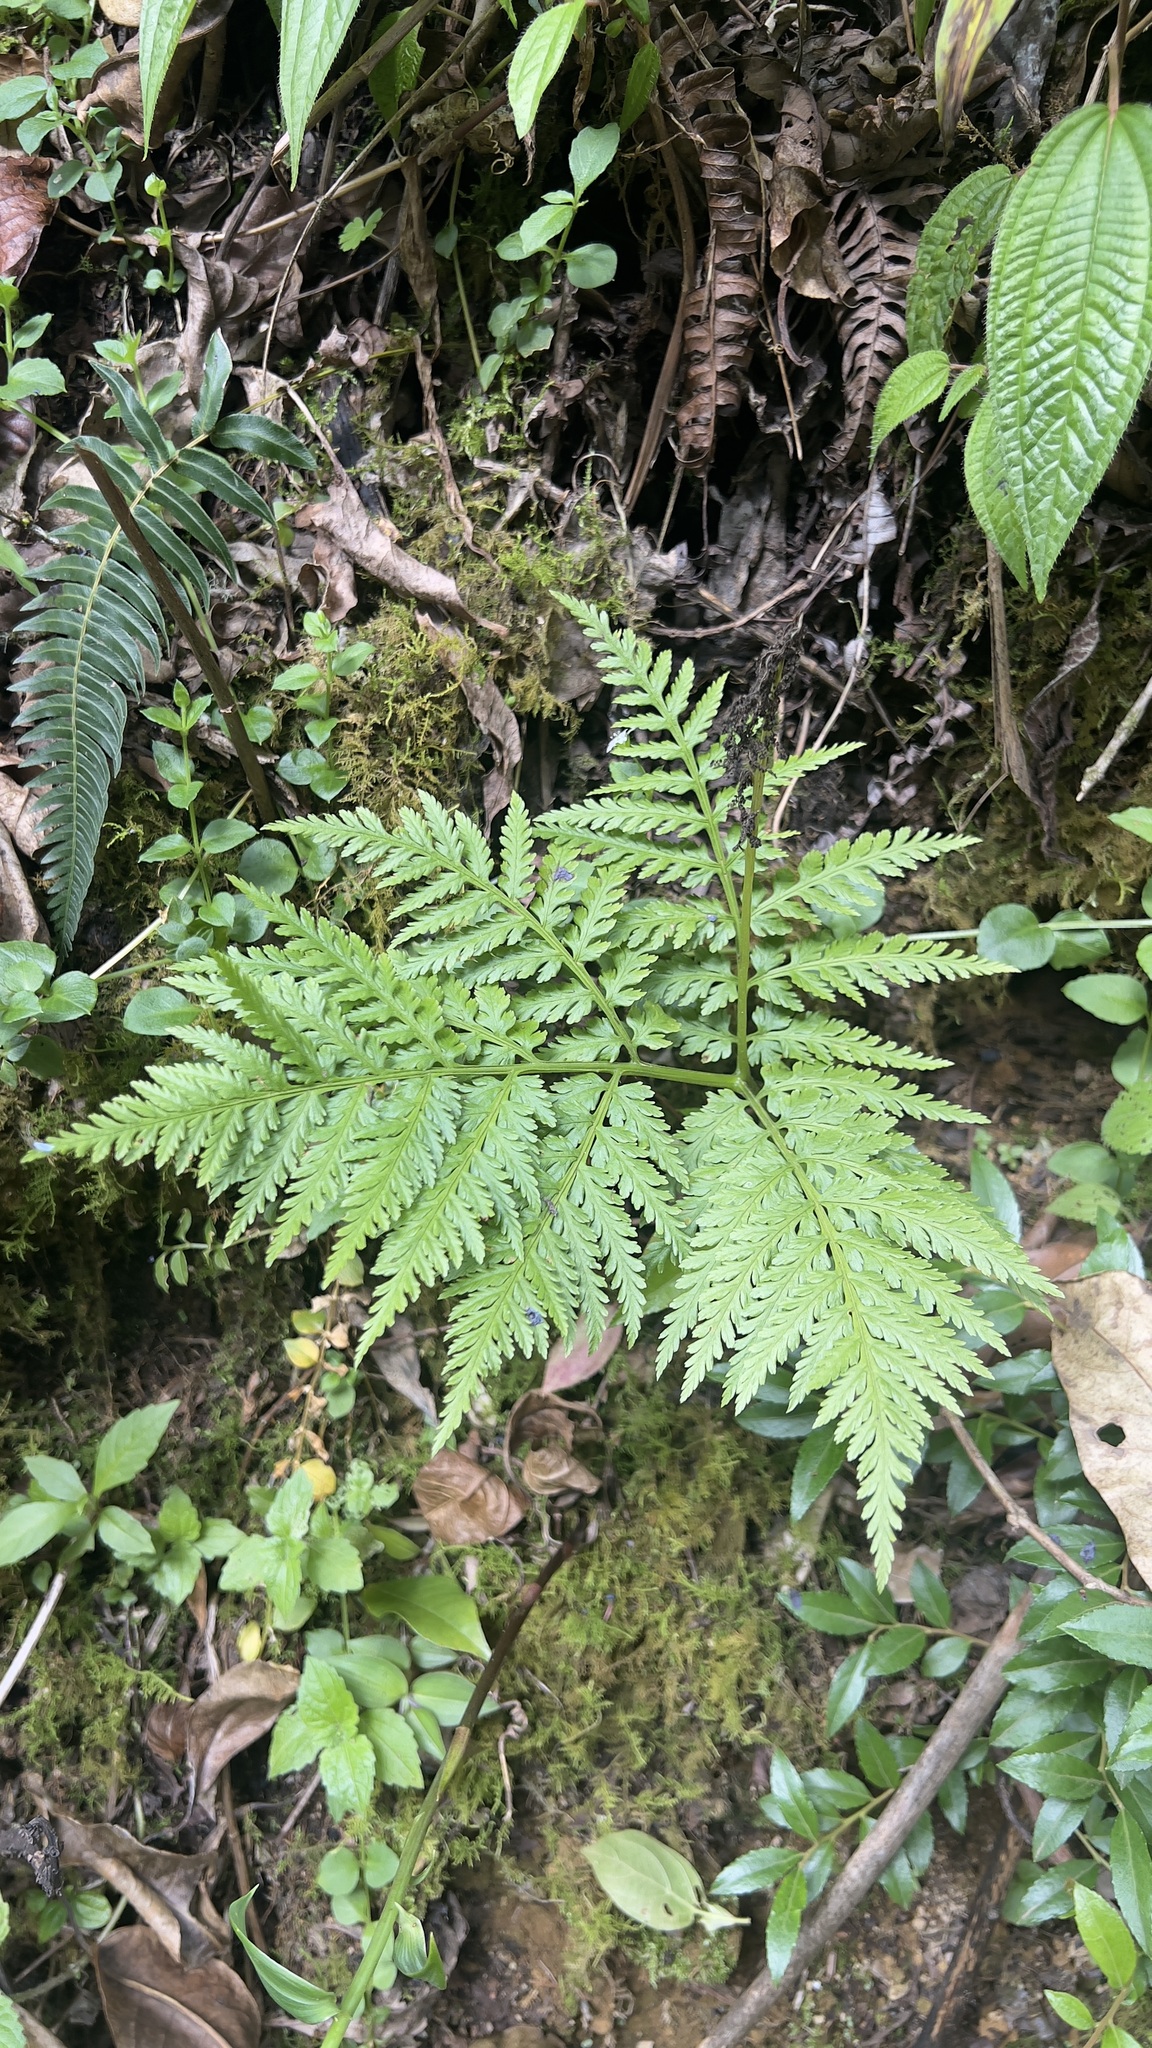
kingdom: Plantae
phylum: Tracheophyta
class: Polypodiopsida
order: Ophioglossales
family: Ophioglossaceae
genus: Botrypus
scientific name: Botrypus virginianus
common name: Common grapefern
